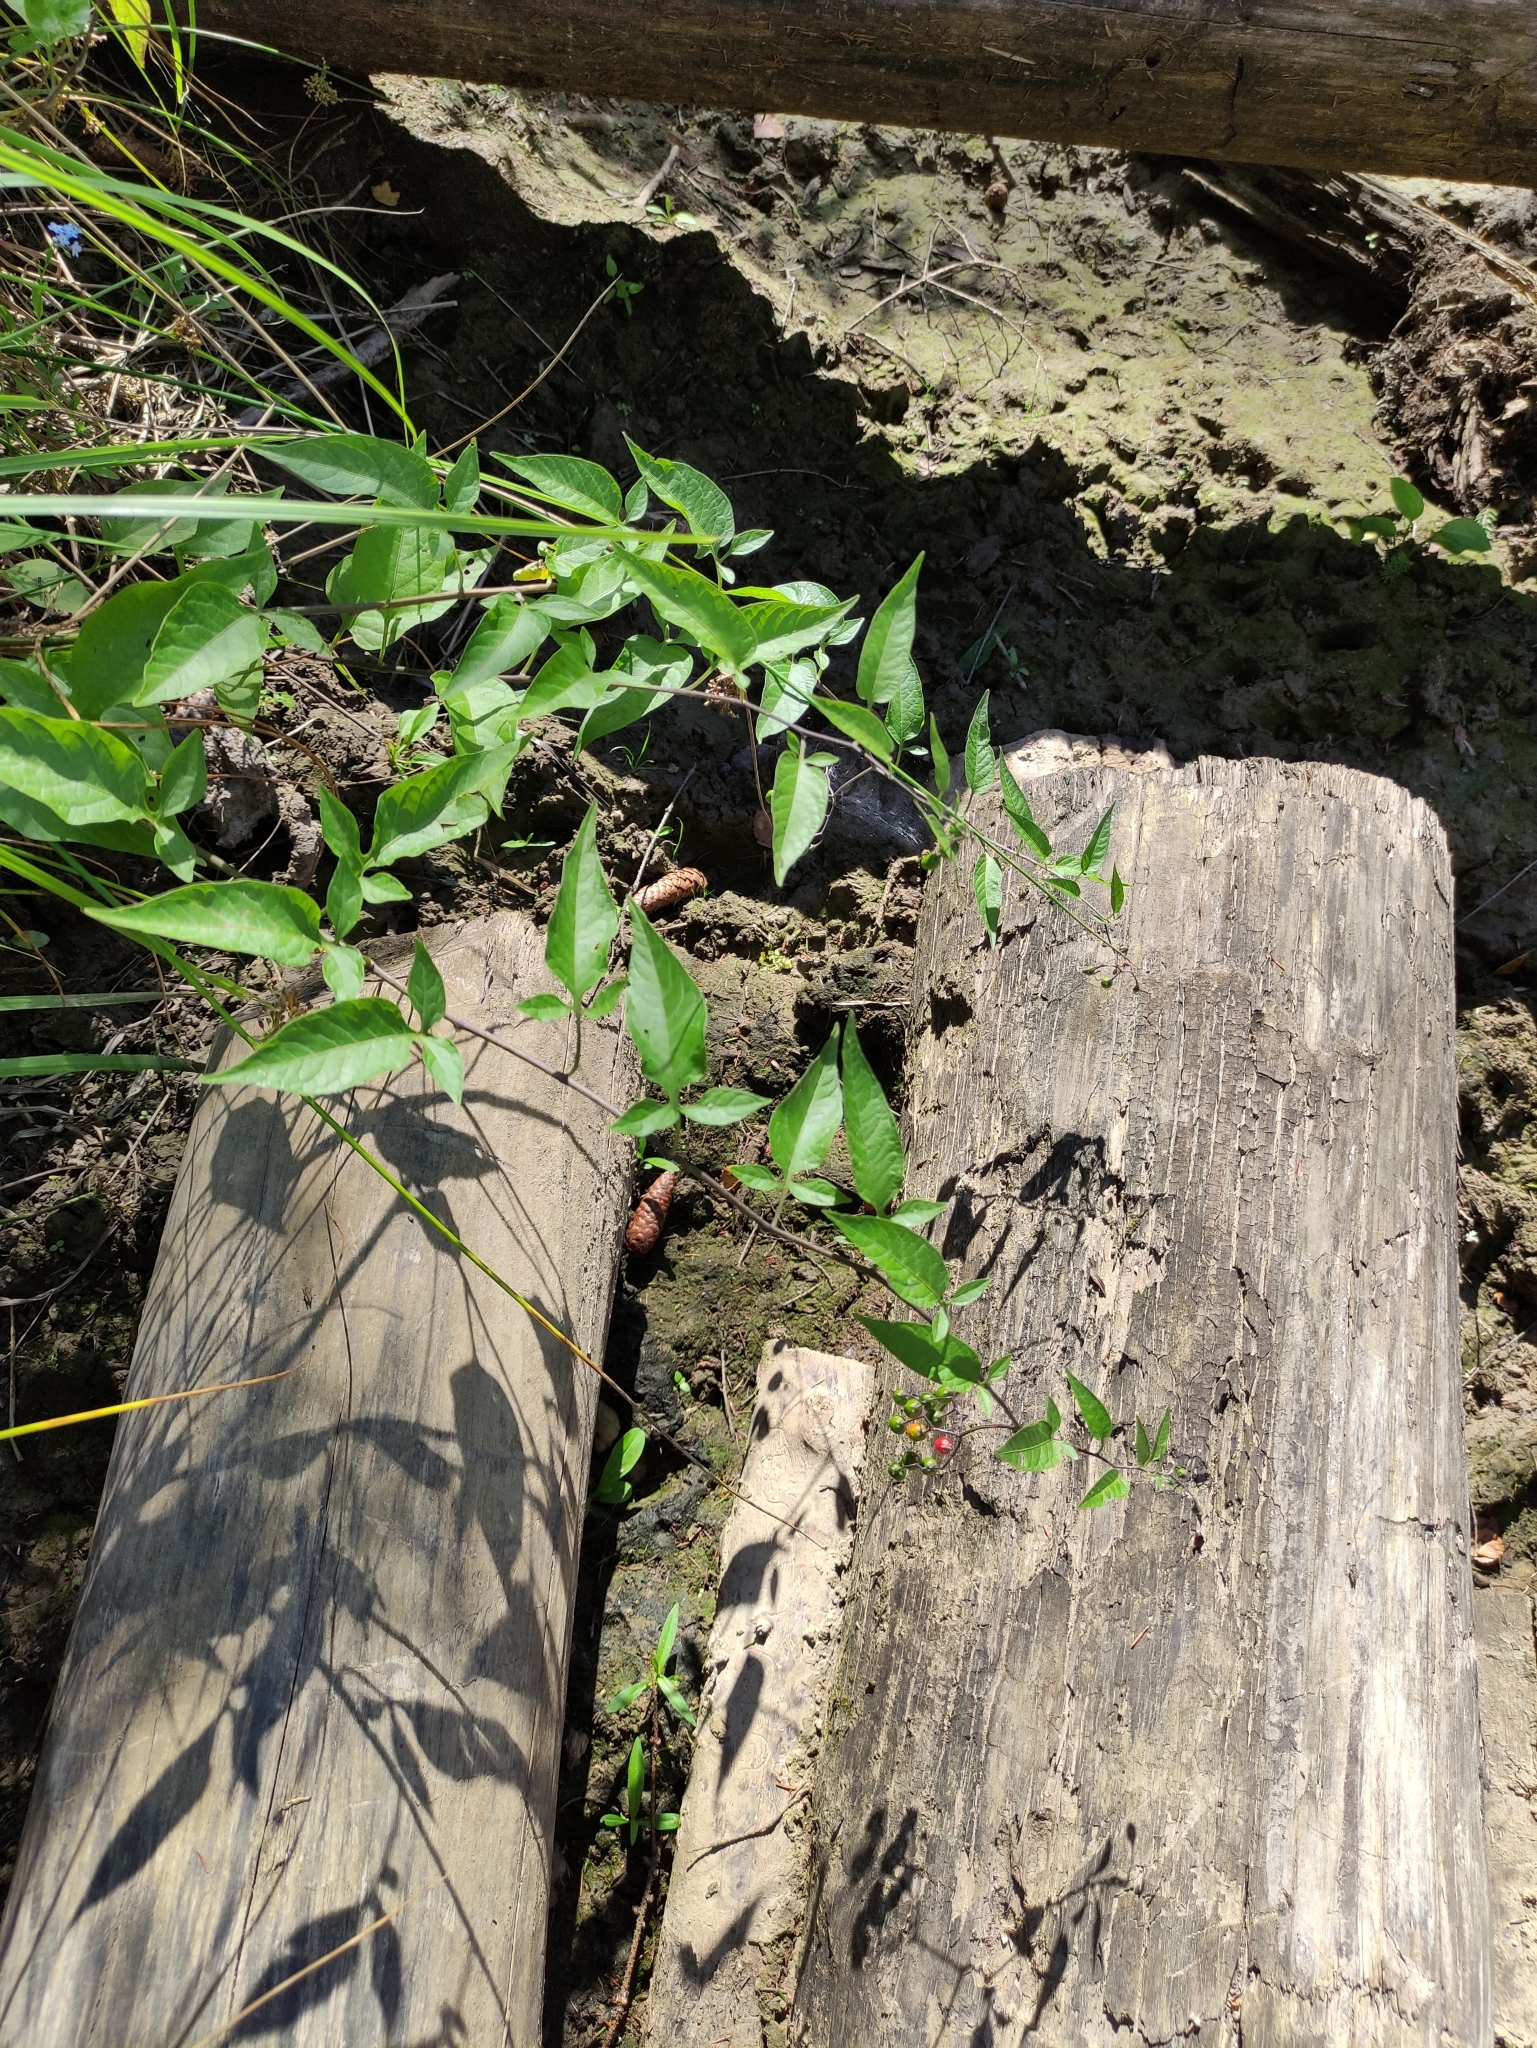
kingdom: Plantae
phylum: Tracheophyta
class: Magnoliopsida
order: Solanales
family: Solanaceae
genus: Solanum
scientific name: Solanum dulcamara
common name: Climbing nightshade
